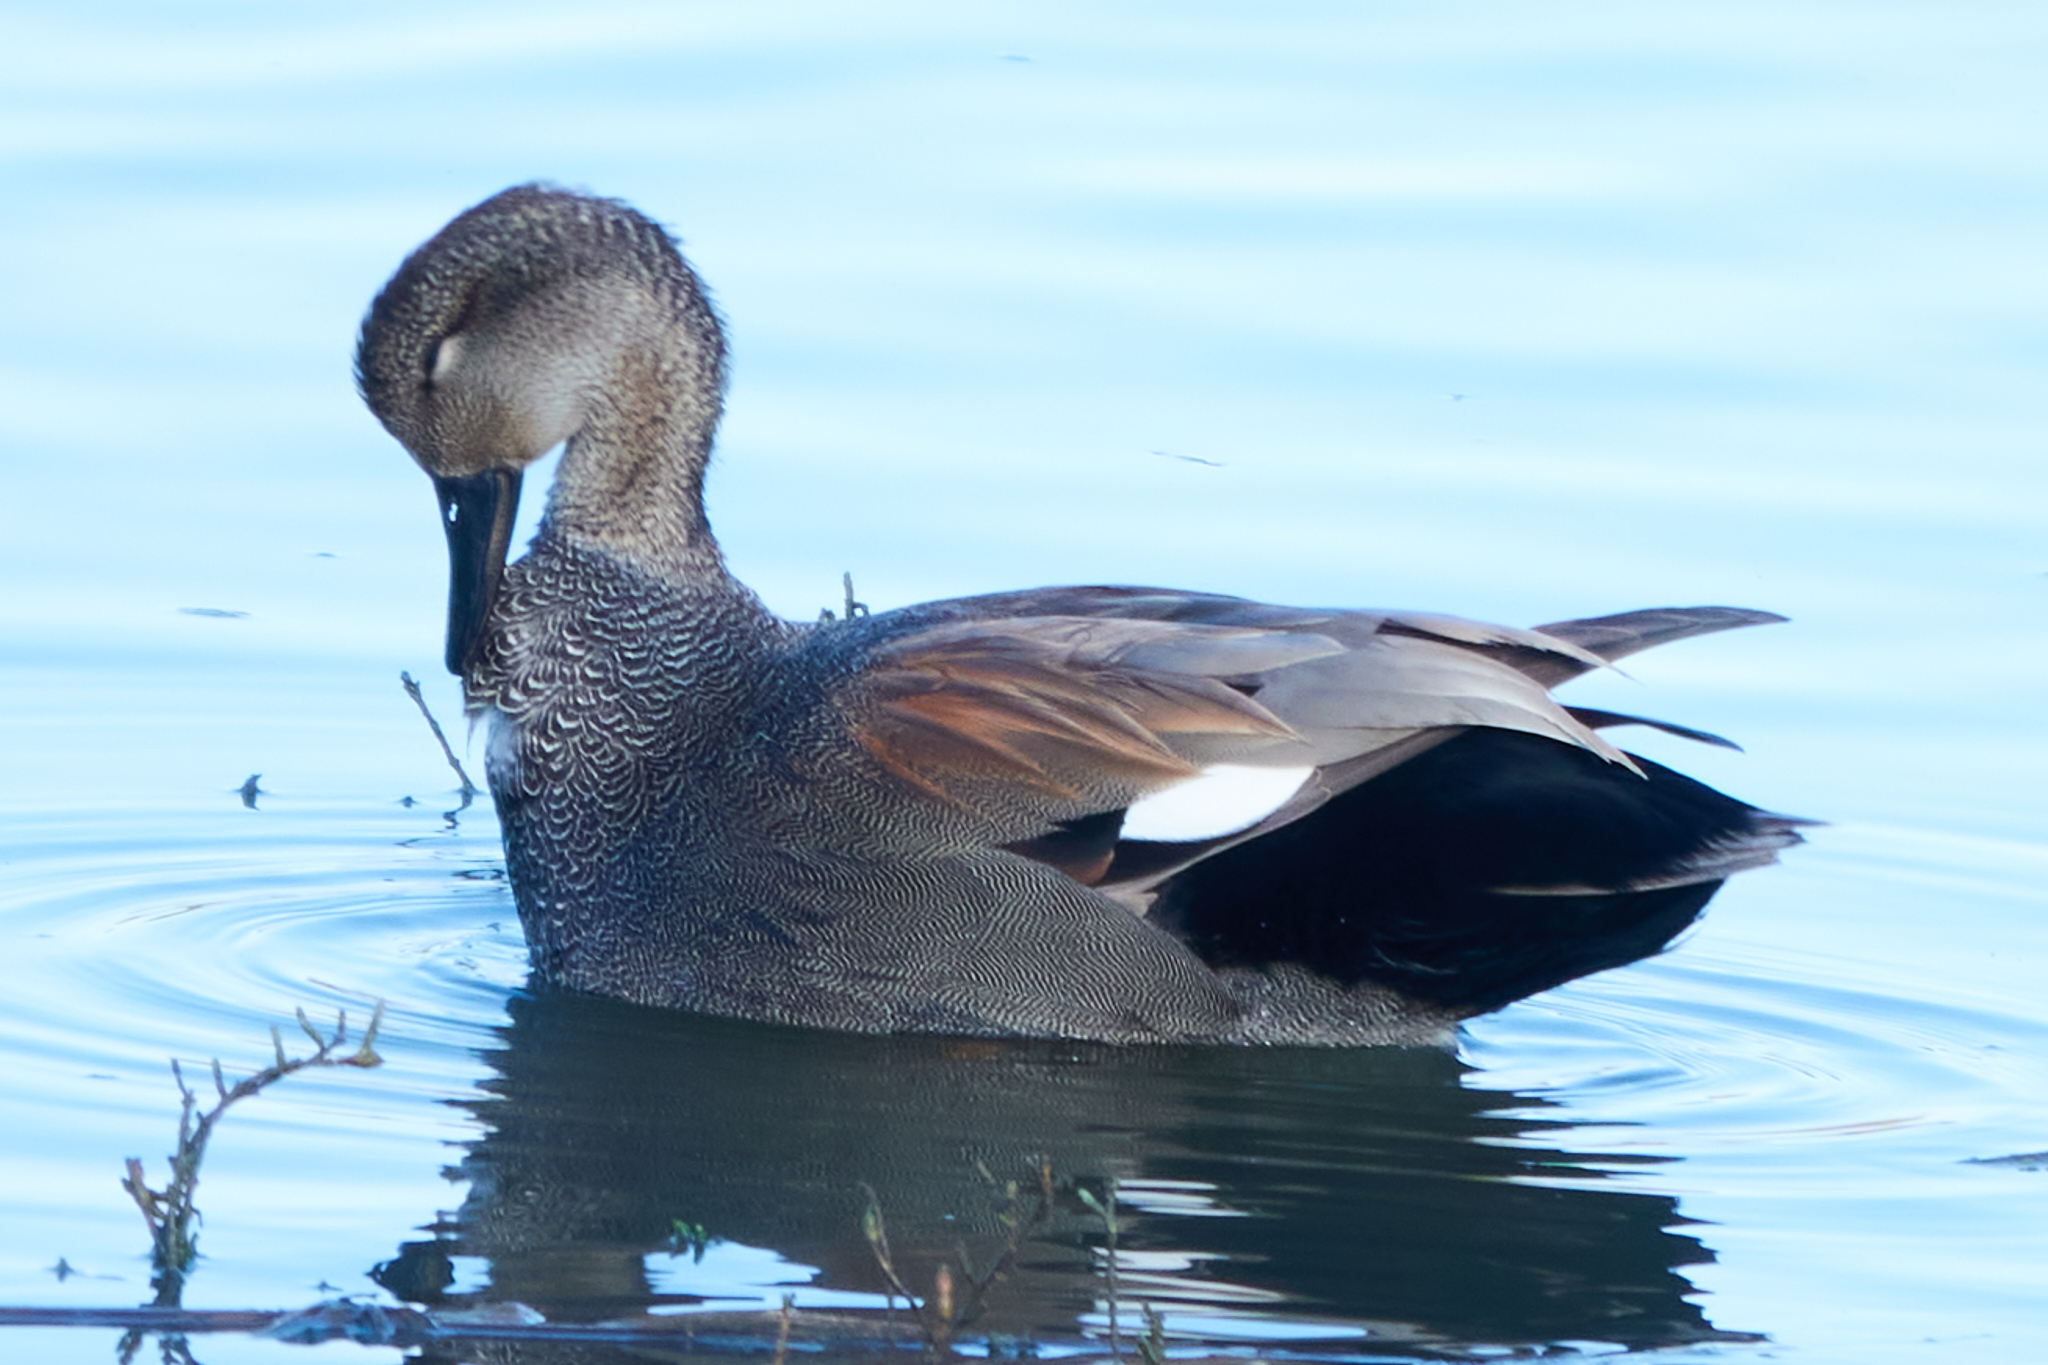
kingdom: Animalia
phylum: Chordata
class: Aves
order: Anseriformes
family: Anatidae
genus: Mareca
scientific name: Mareca strepera
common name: Gadwall
